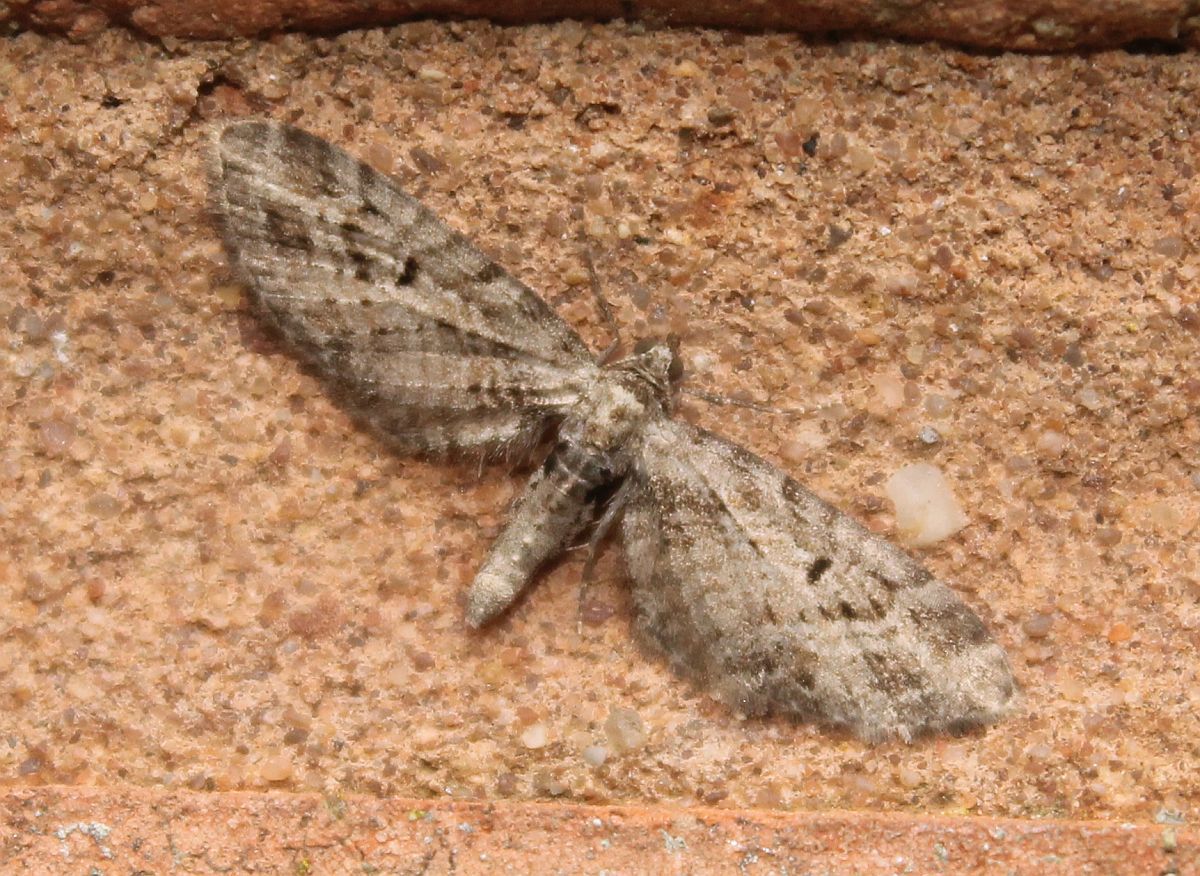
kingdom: Animalia
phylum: Arthropoda
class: Insecta
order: Lepidoptera
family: Geometridae
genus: Eupithecia
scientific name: Eupithecia exiguata
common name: Mottled pug
